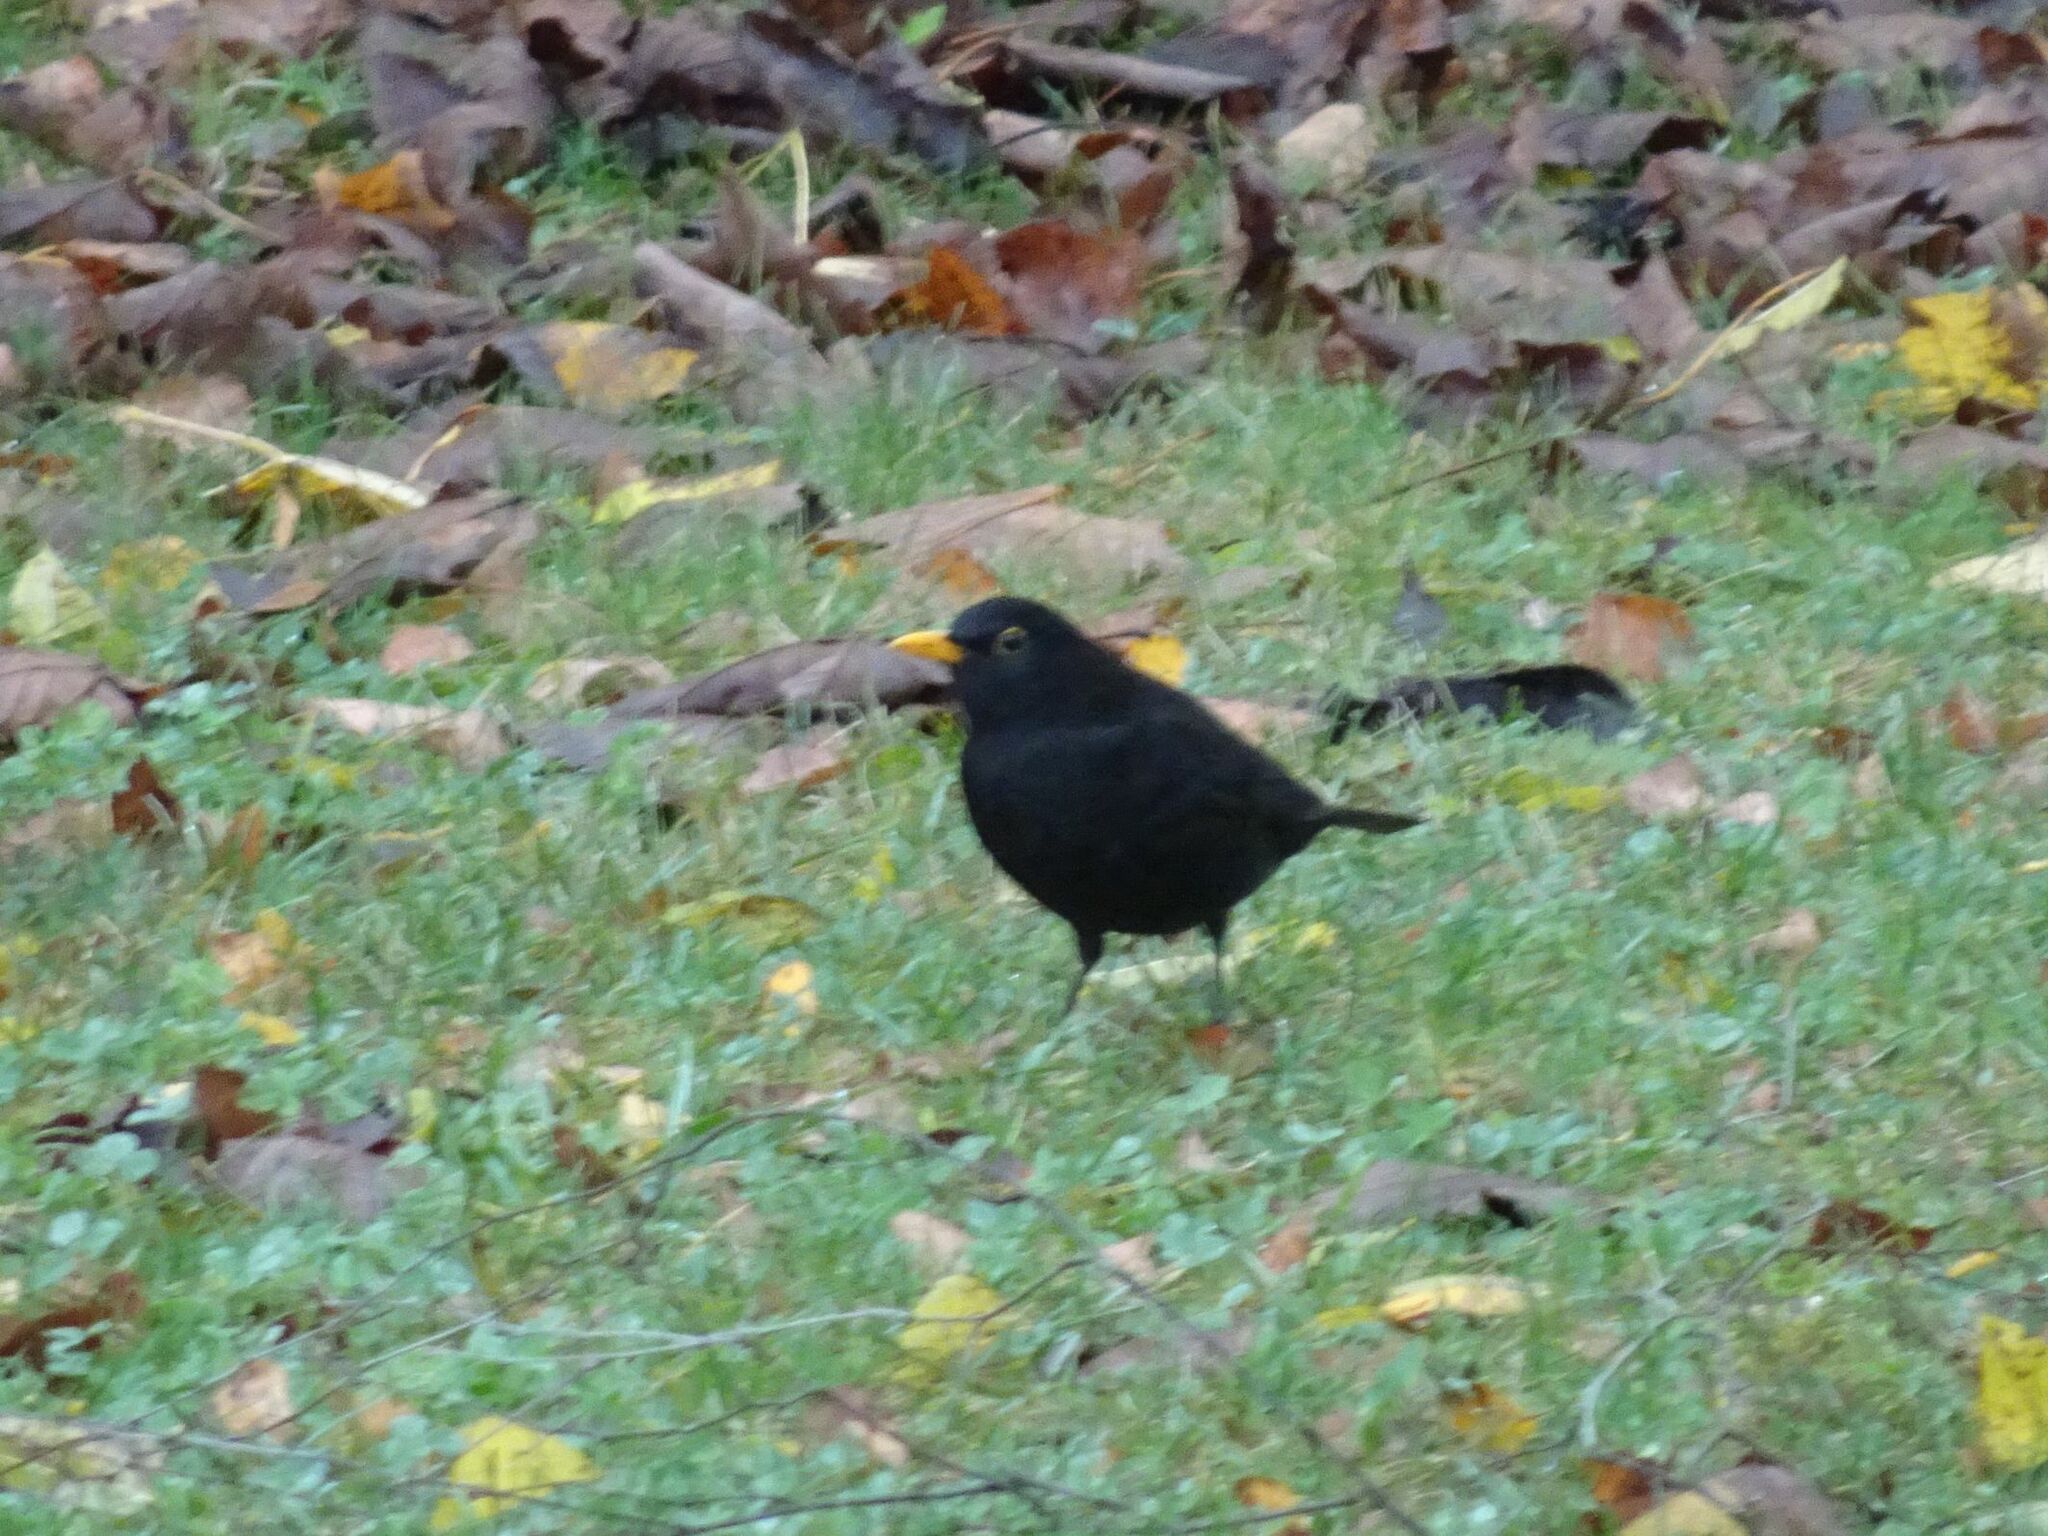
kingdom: Animalia
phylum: Chordata
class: Aves
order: Passeriformes
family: Turdidae
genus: Turdus
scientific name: Turdus merula
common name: Common blackbird
